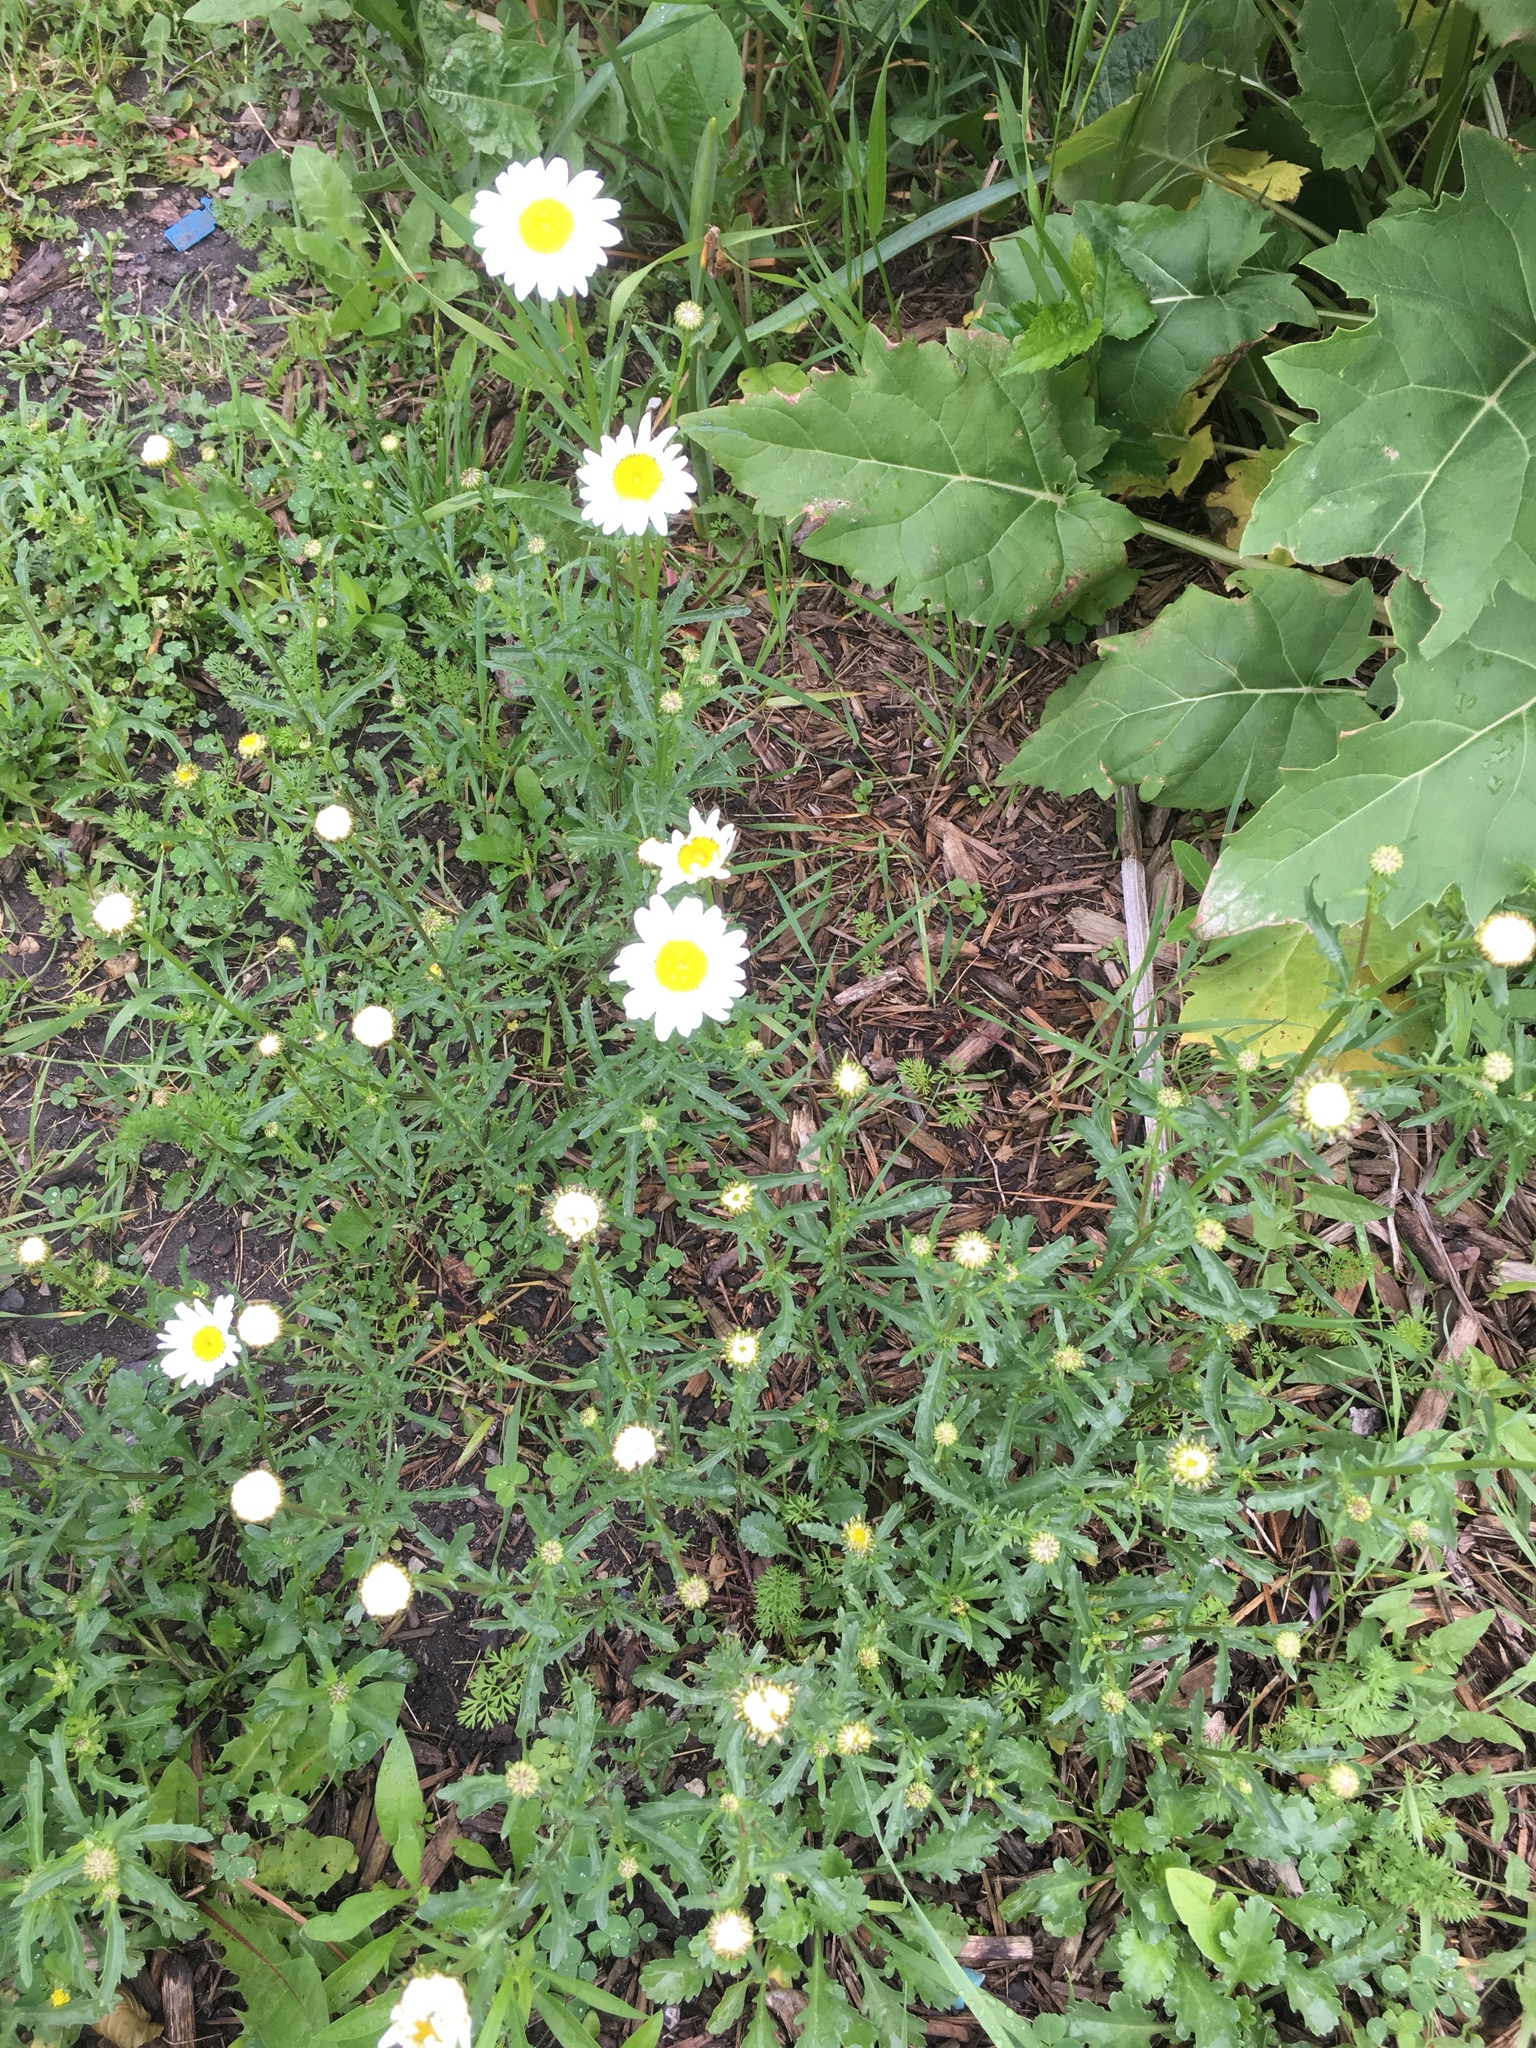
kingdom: Plantae
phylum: Tracheophyta
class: Magnoliopsida
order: Asterales
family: Asteraceae
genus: Leucanthemum
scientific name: Leucanthemum vulgare
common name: Oxeye daisy
